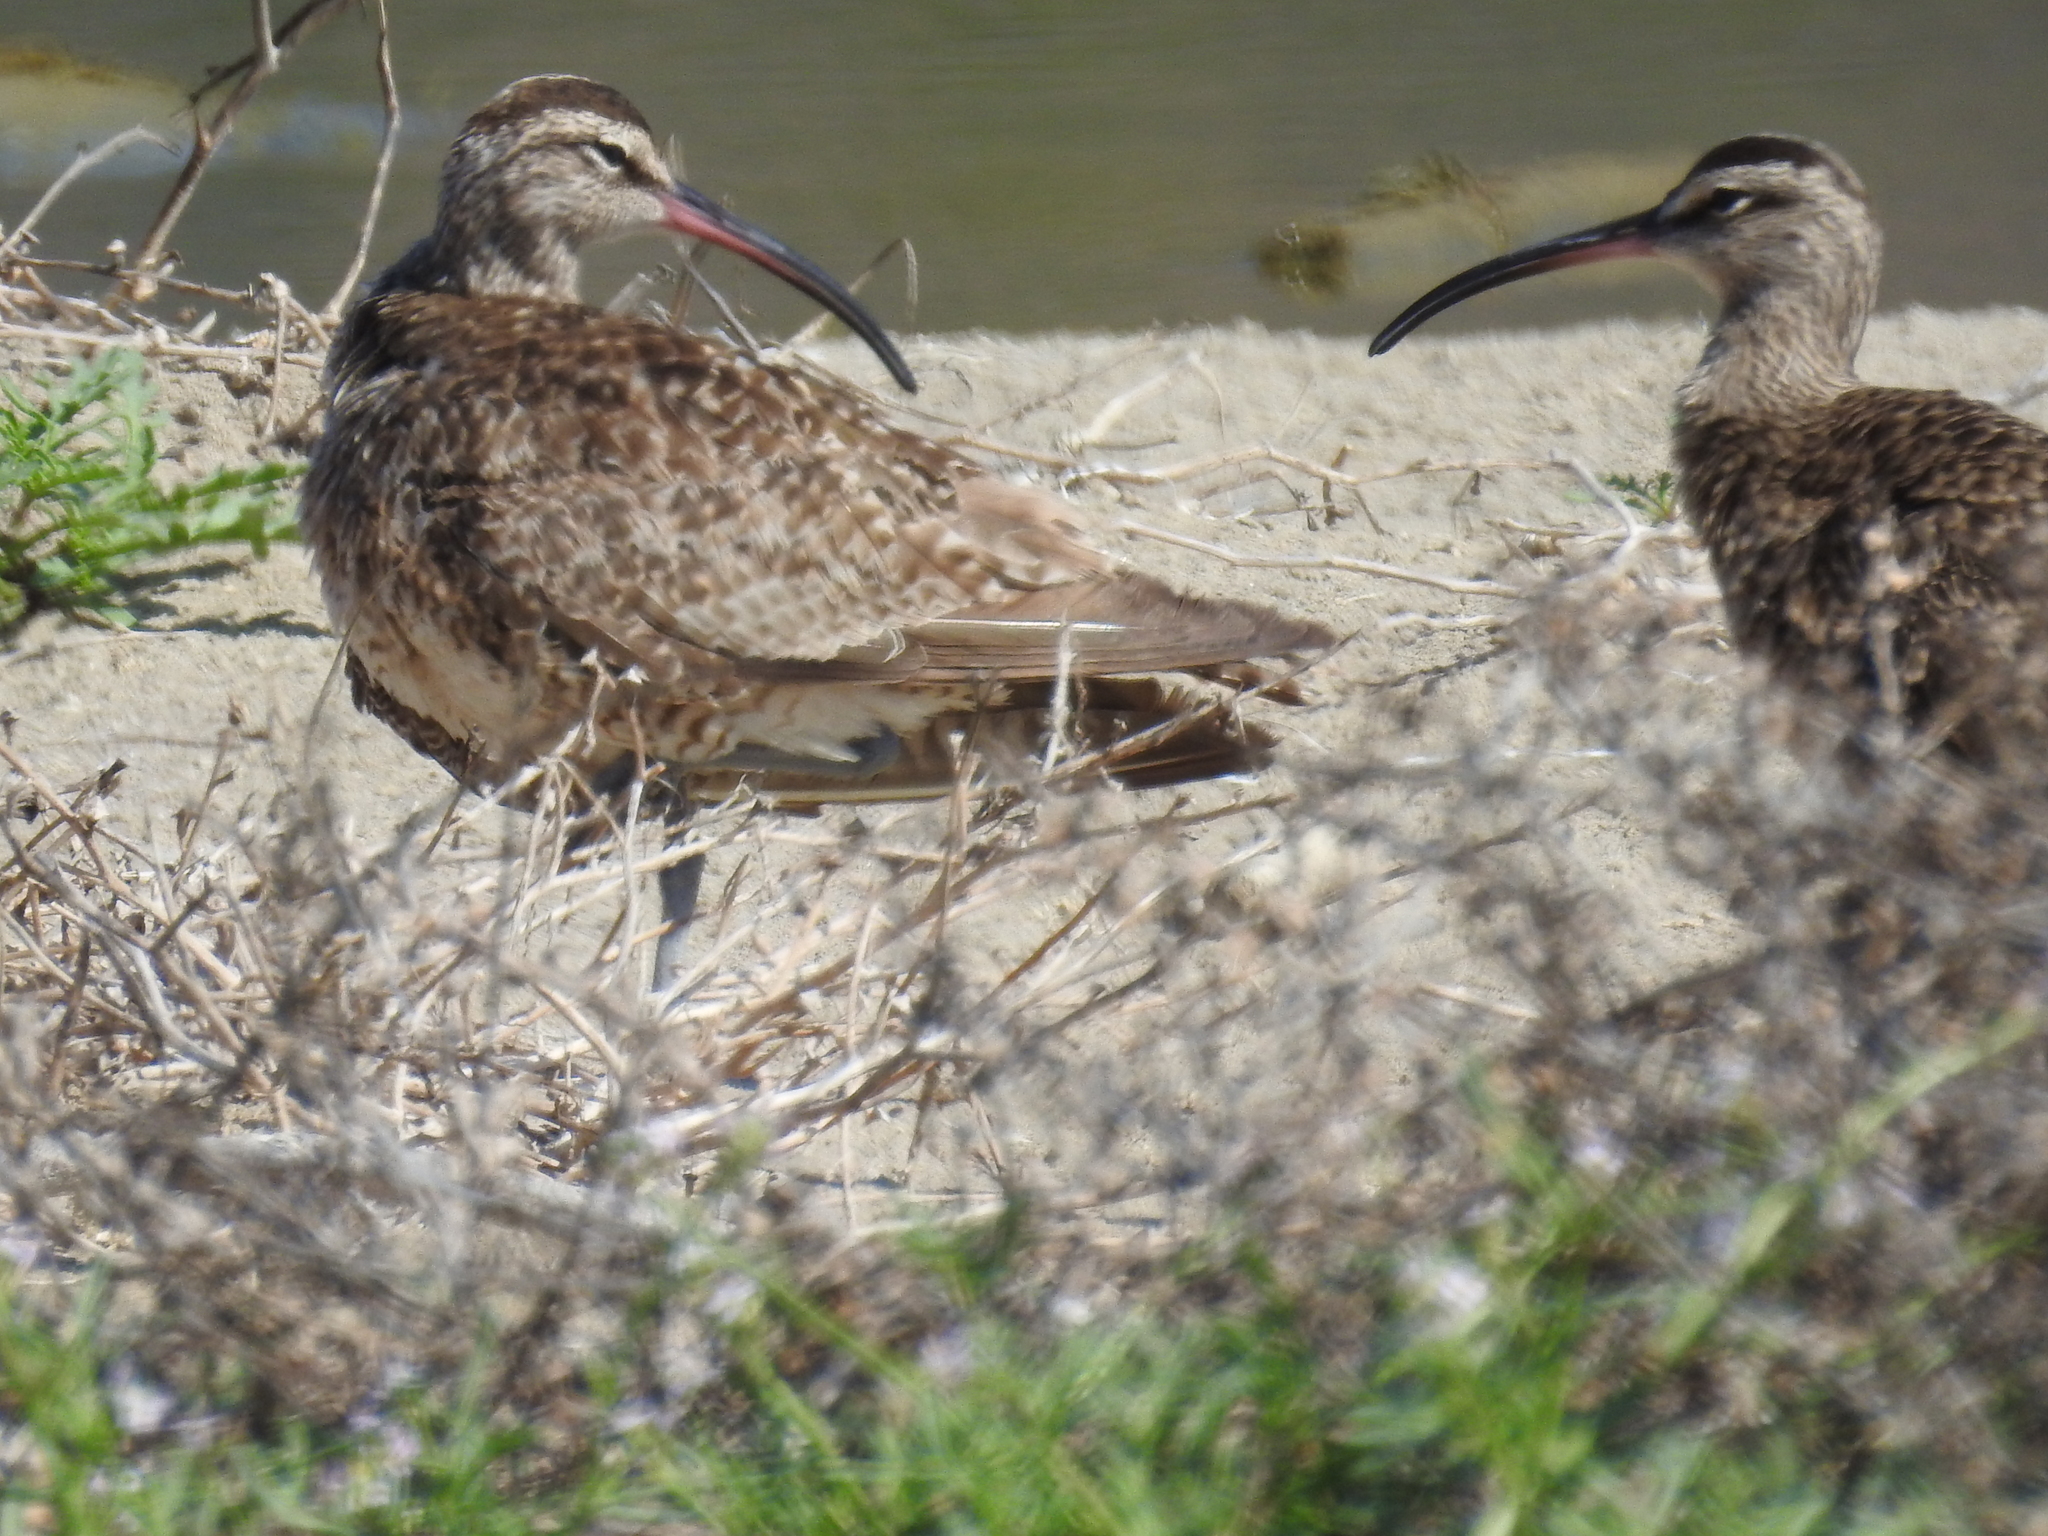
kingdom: Animalia
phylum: Chordata
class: Aves
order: Charadriiformes
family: Scolopacidae
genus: Numenius
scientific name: Numenius phaeopus
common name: Whimbrel
